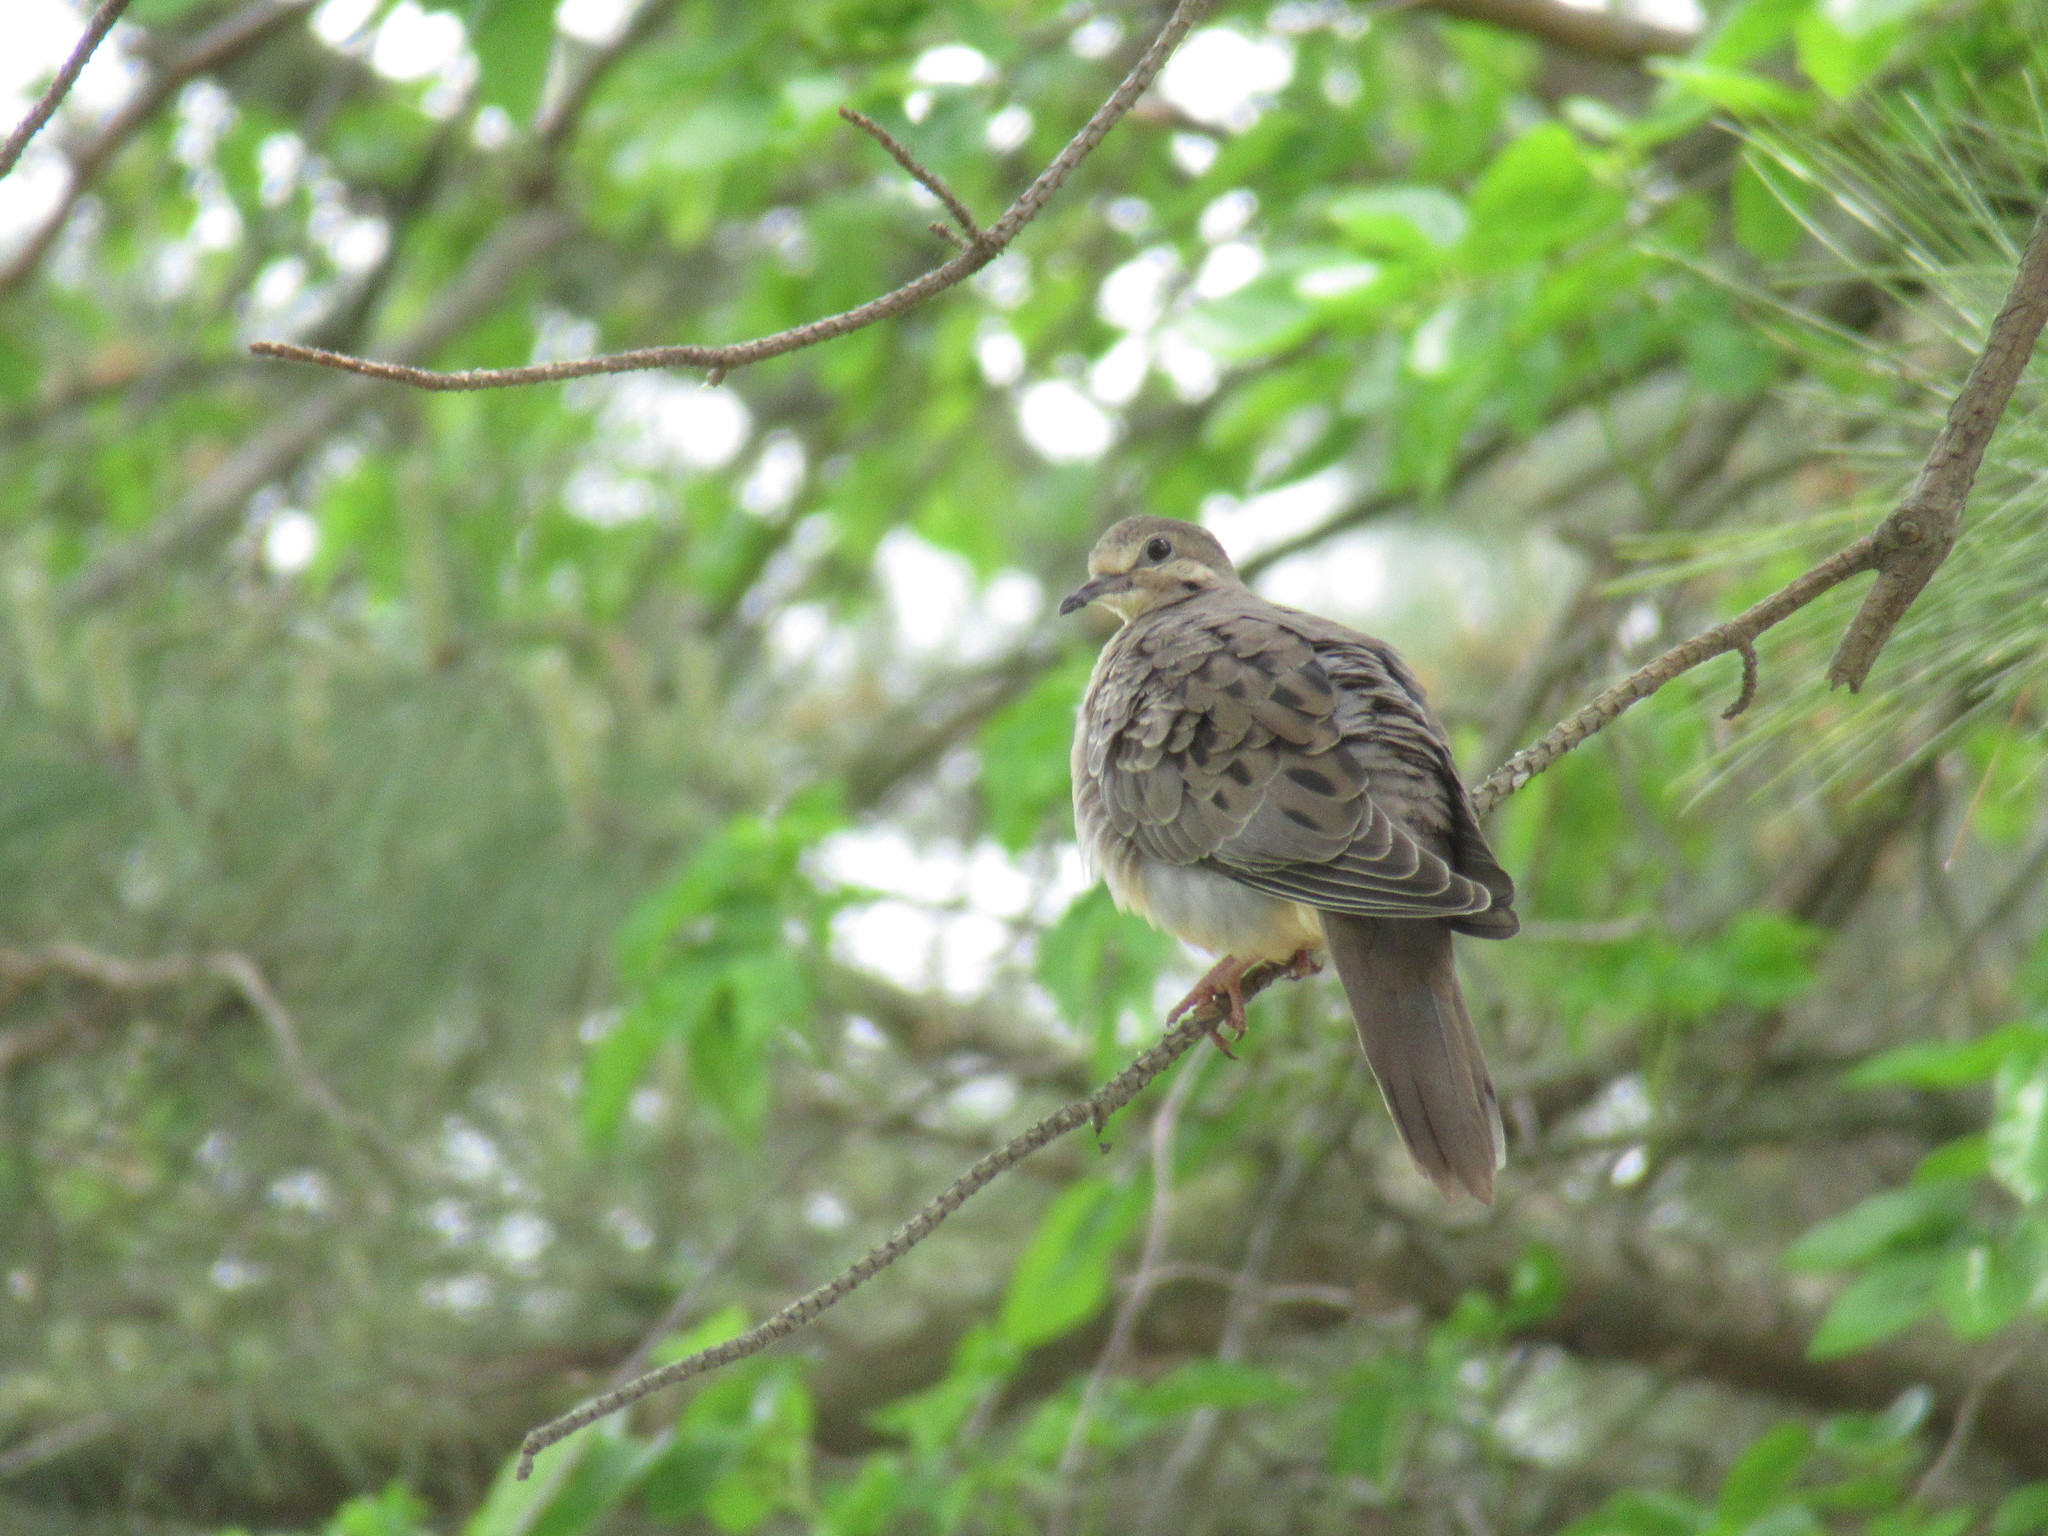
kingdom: Animalia
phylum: Chordata
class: Aves
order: Columbiformes
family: Columbidae
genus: Zenaida
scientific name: Zenaida macroura
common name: Mourning dove
